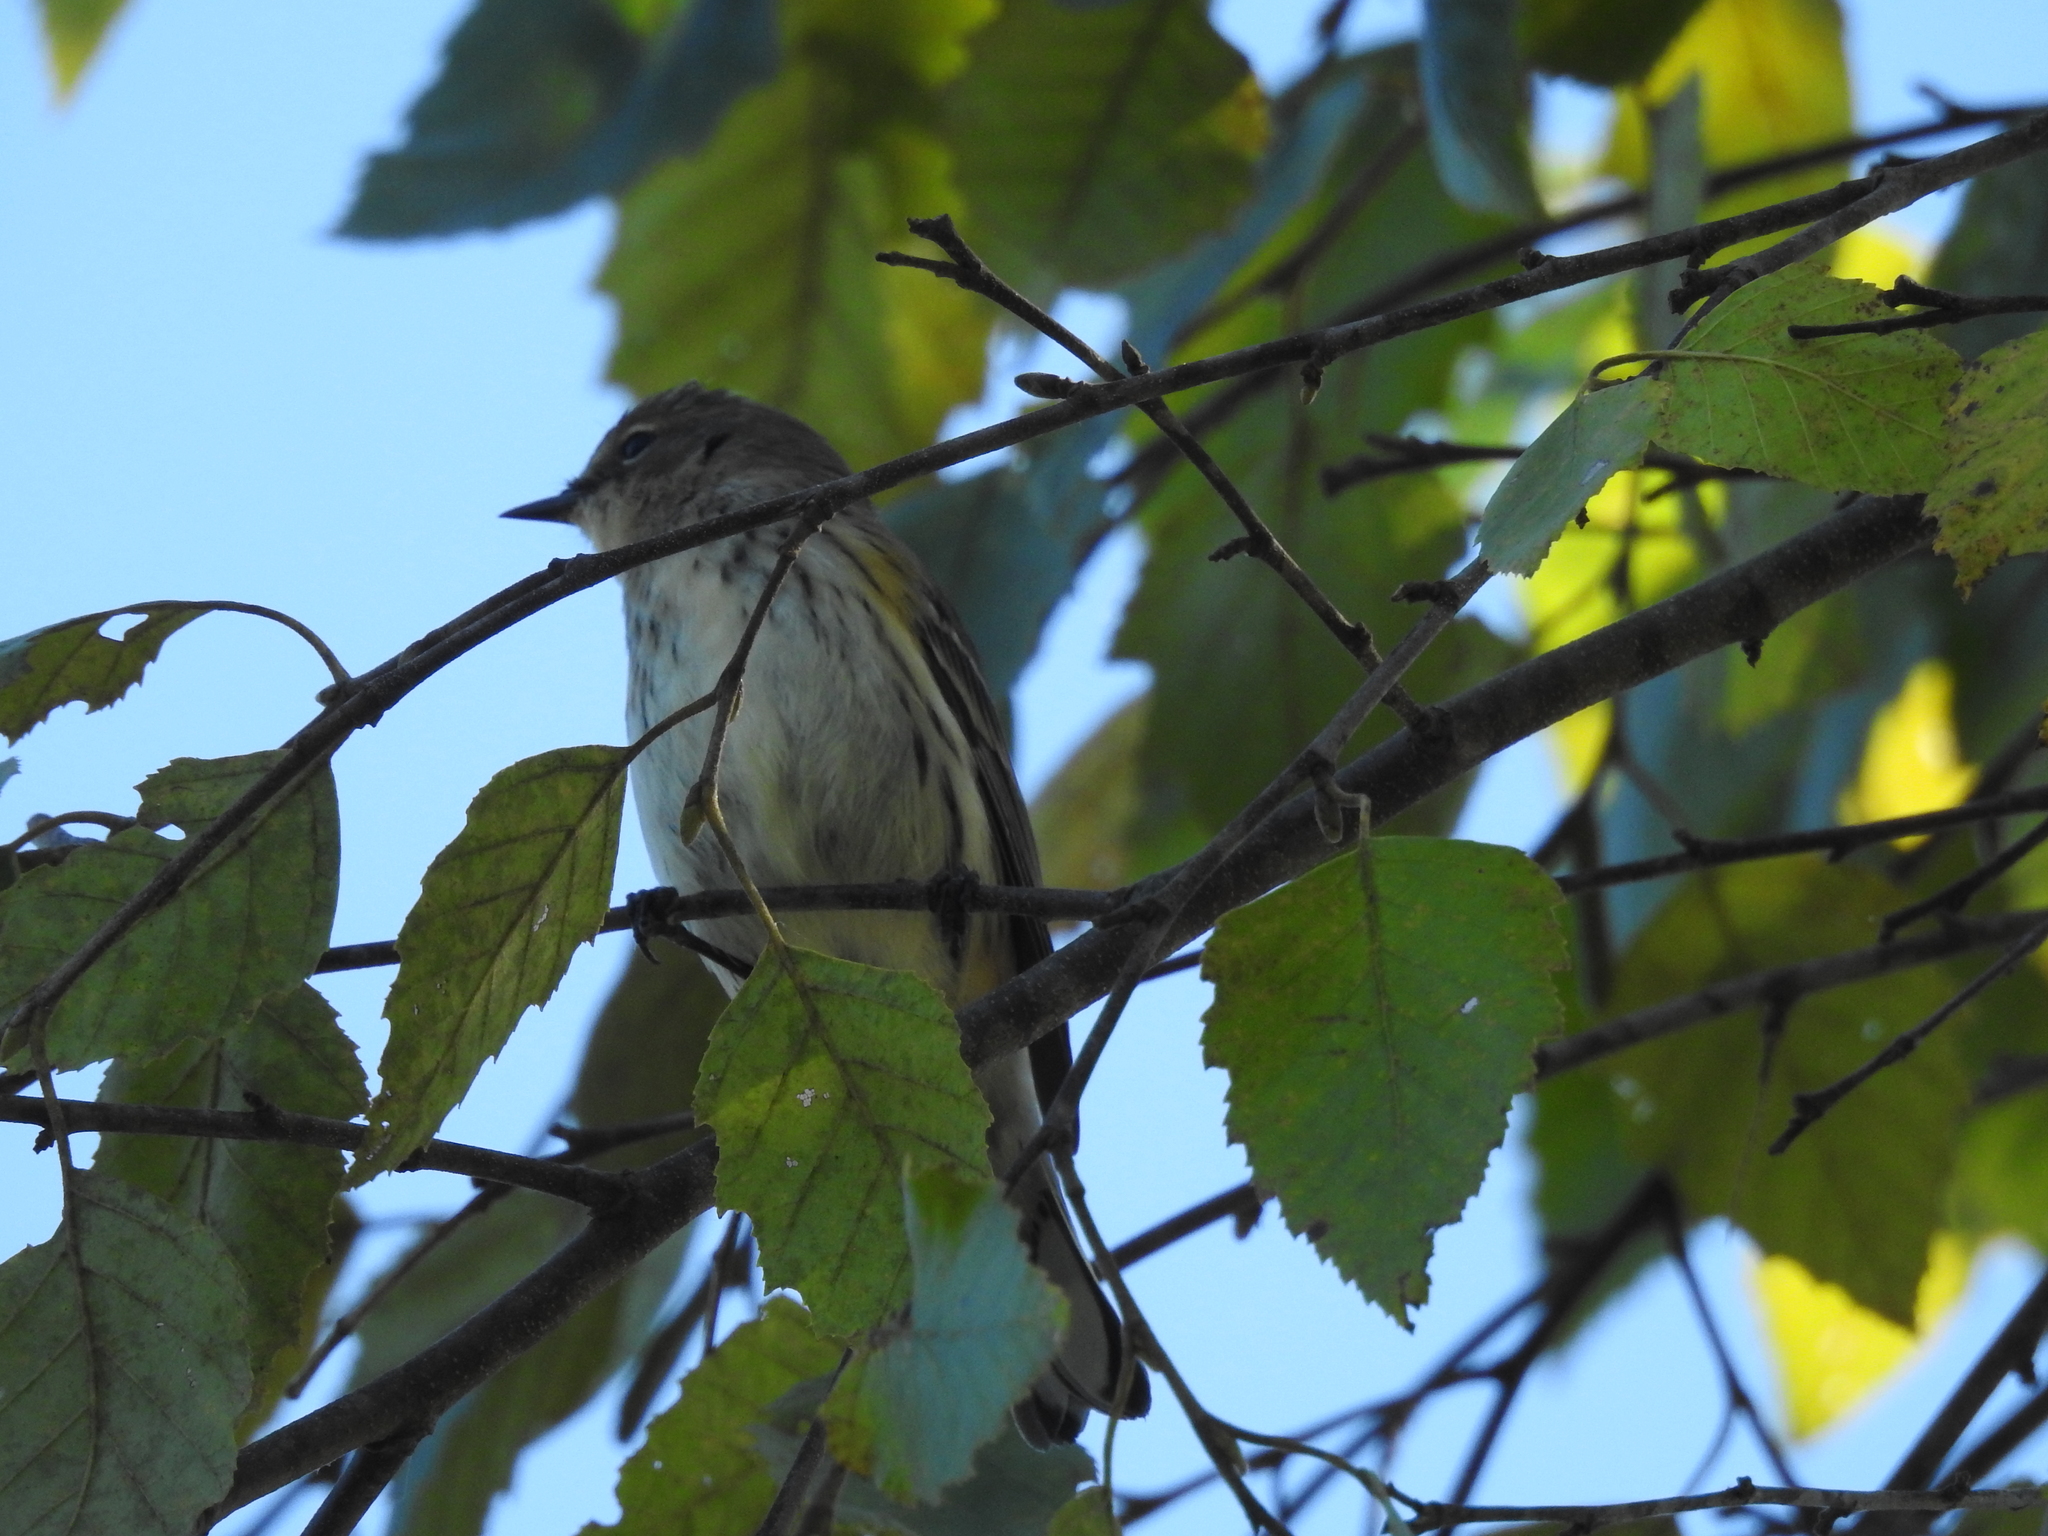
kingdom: Animalia
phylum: Chordata
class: Aves
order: Passeriformes
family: Parulidae
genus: Setophaga
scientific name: Setophaga coronata
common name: Myrtle warbler
